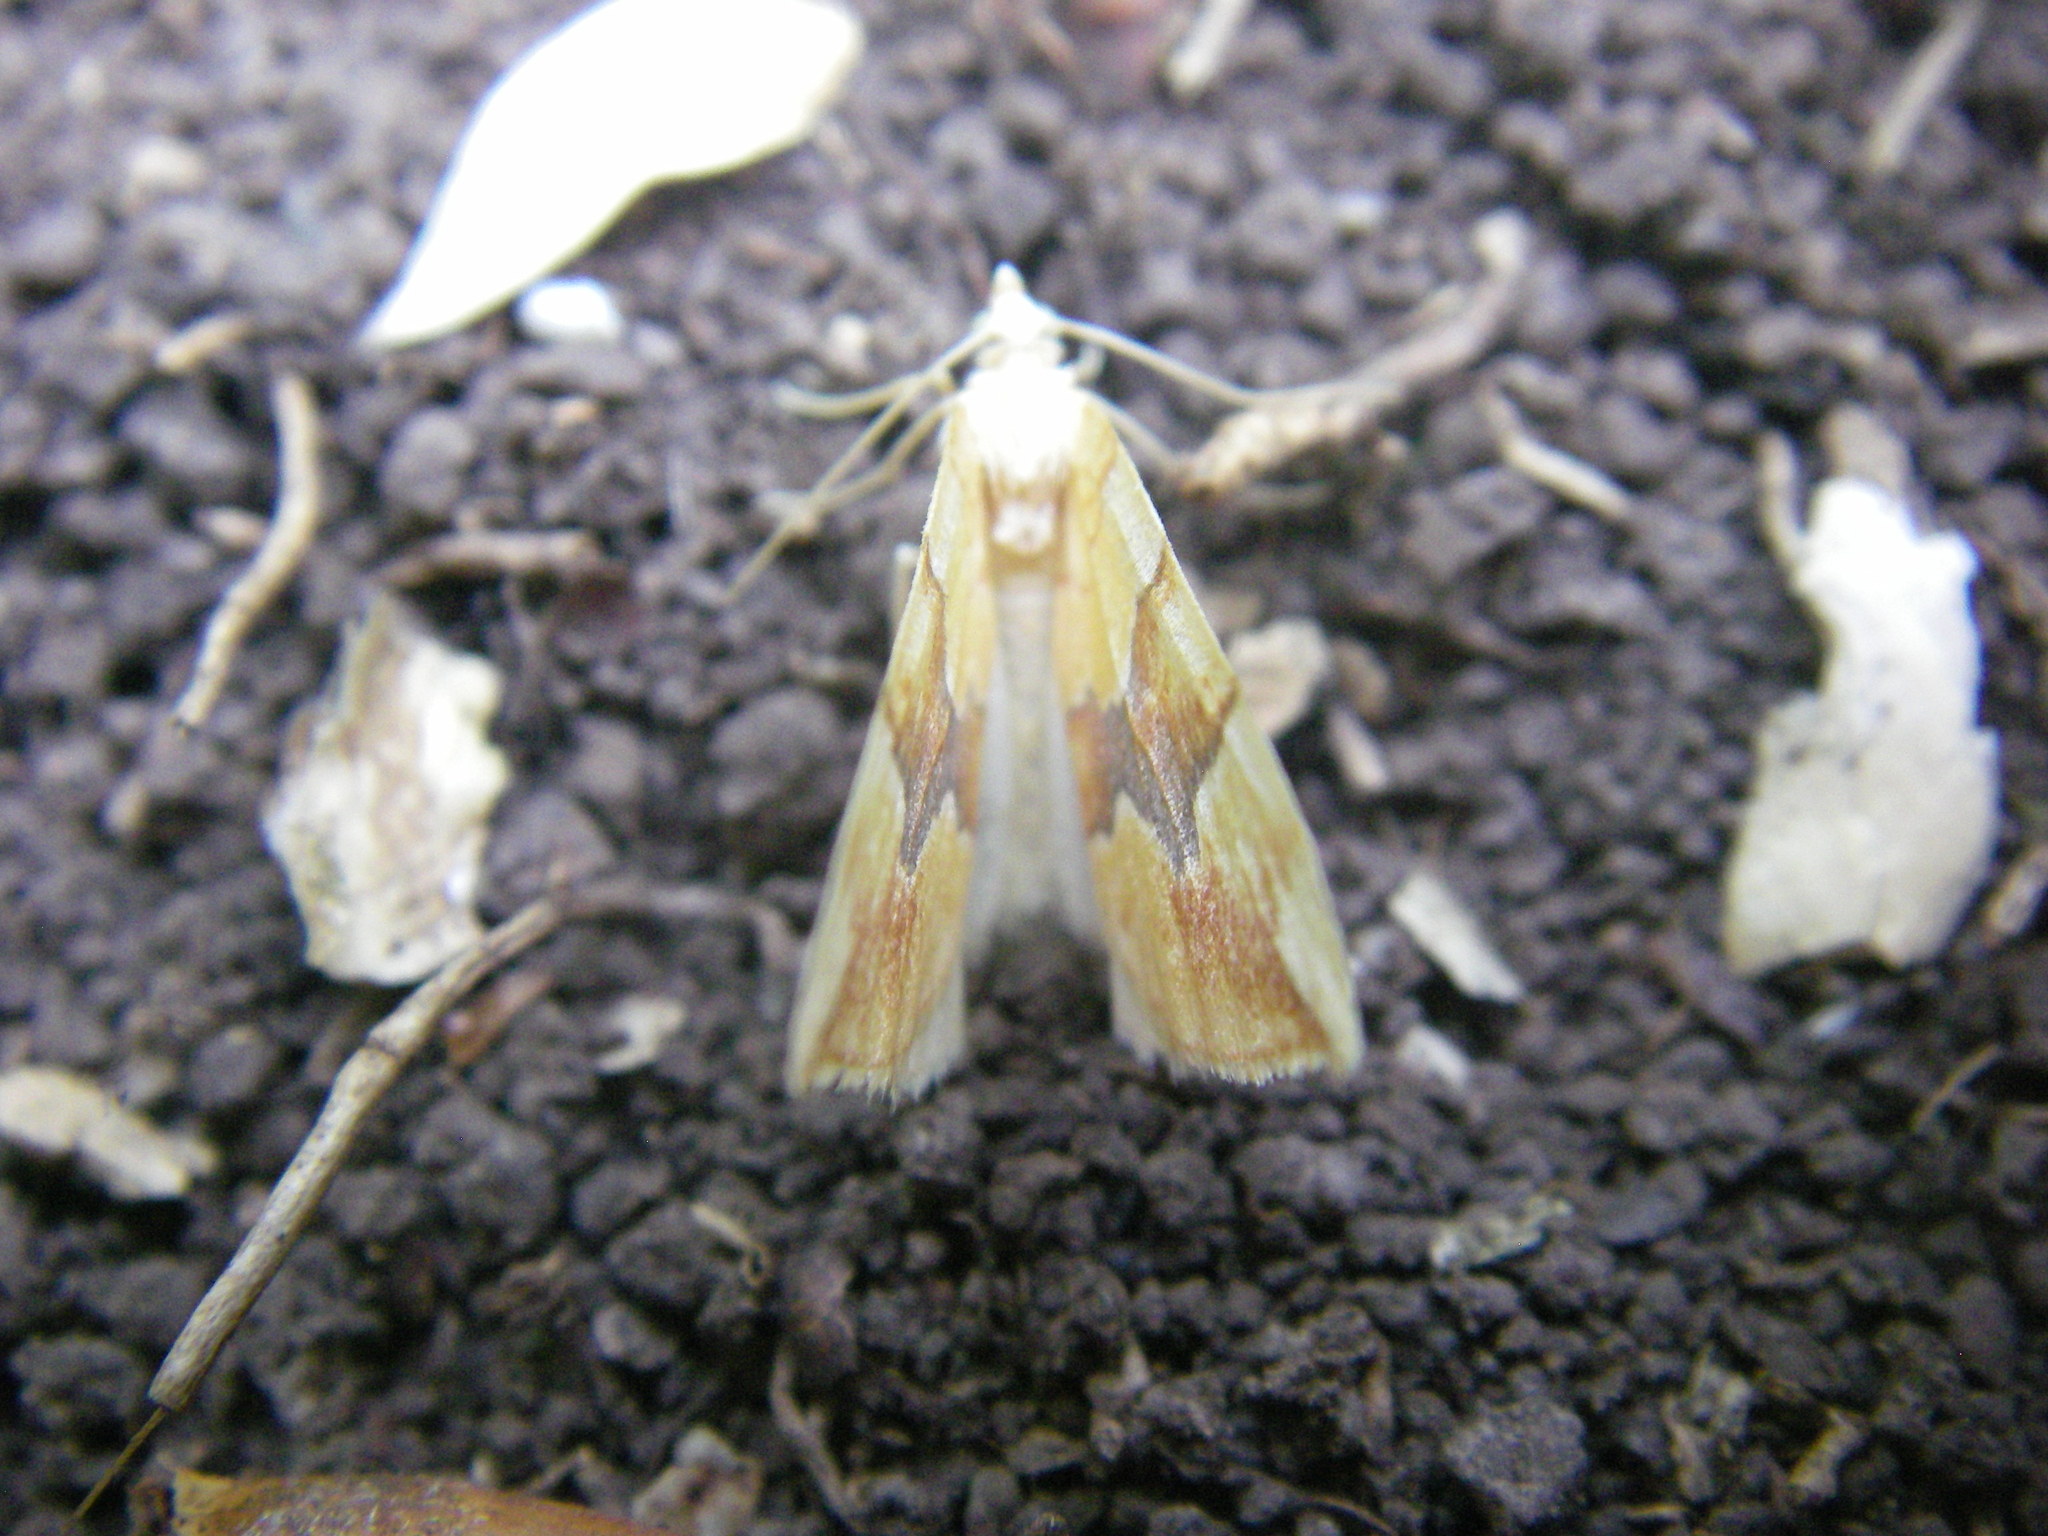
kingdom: Animalia
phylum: Arthropoda
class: Insecta
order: Lepidoptera
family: Geometridae
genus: Cidaria
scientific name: Cidaria fulvata
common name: Barred yellow
